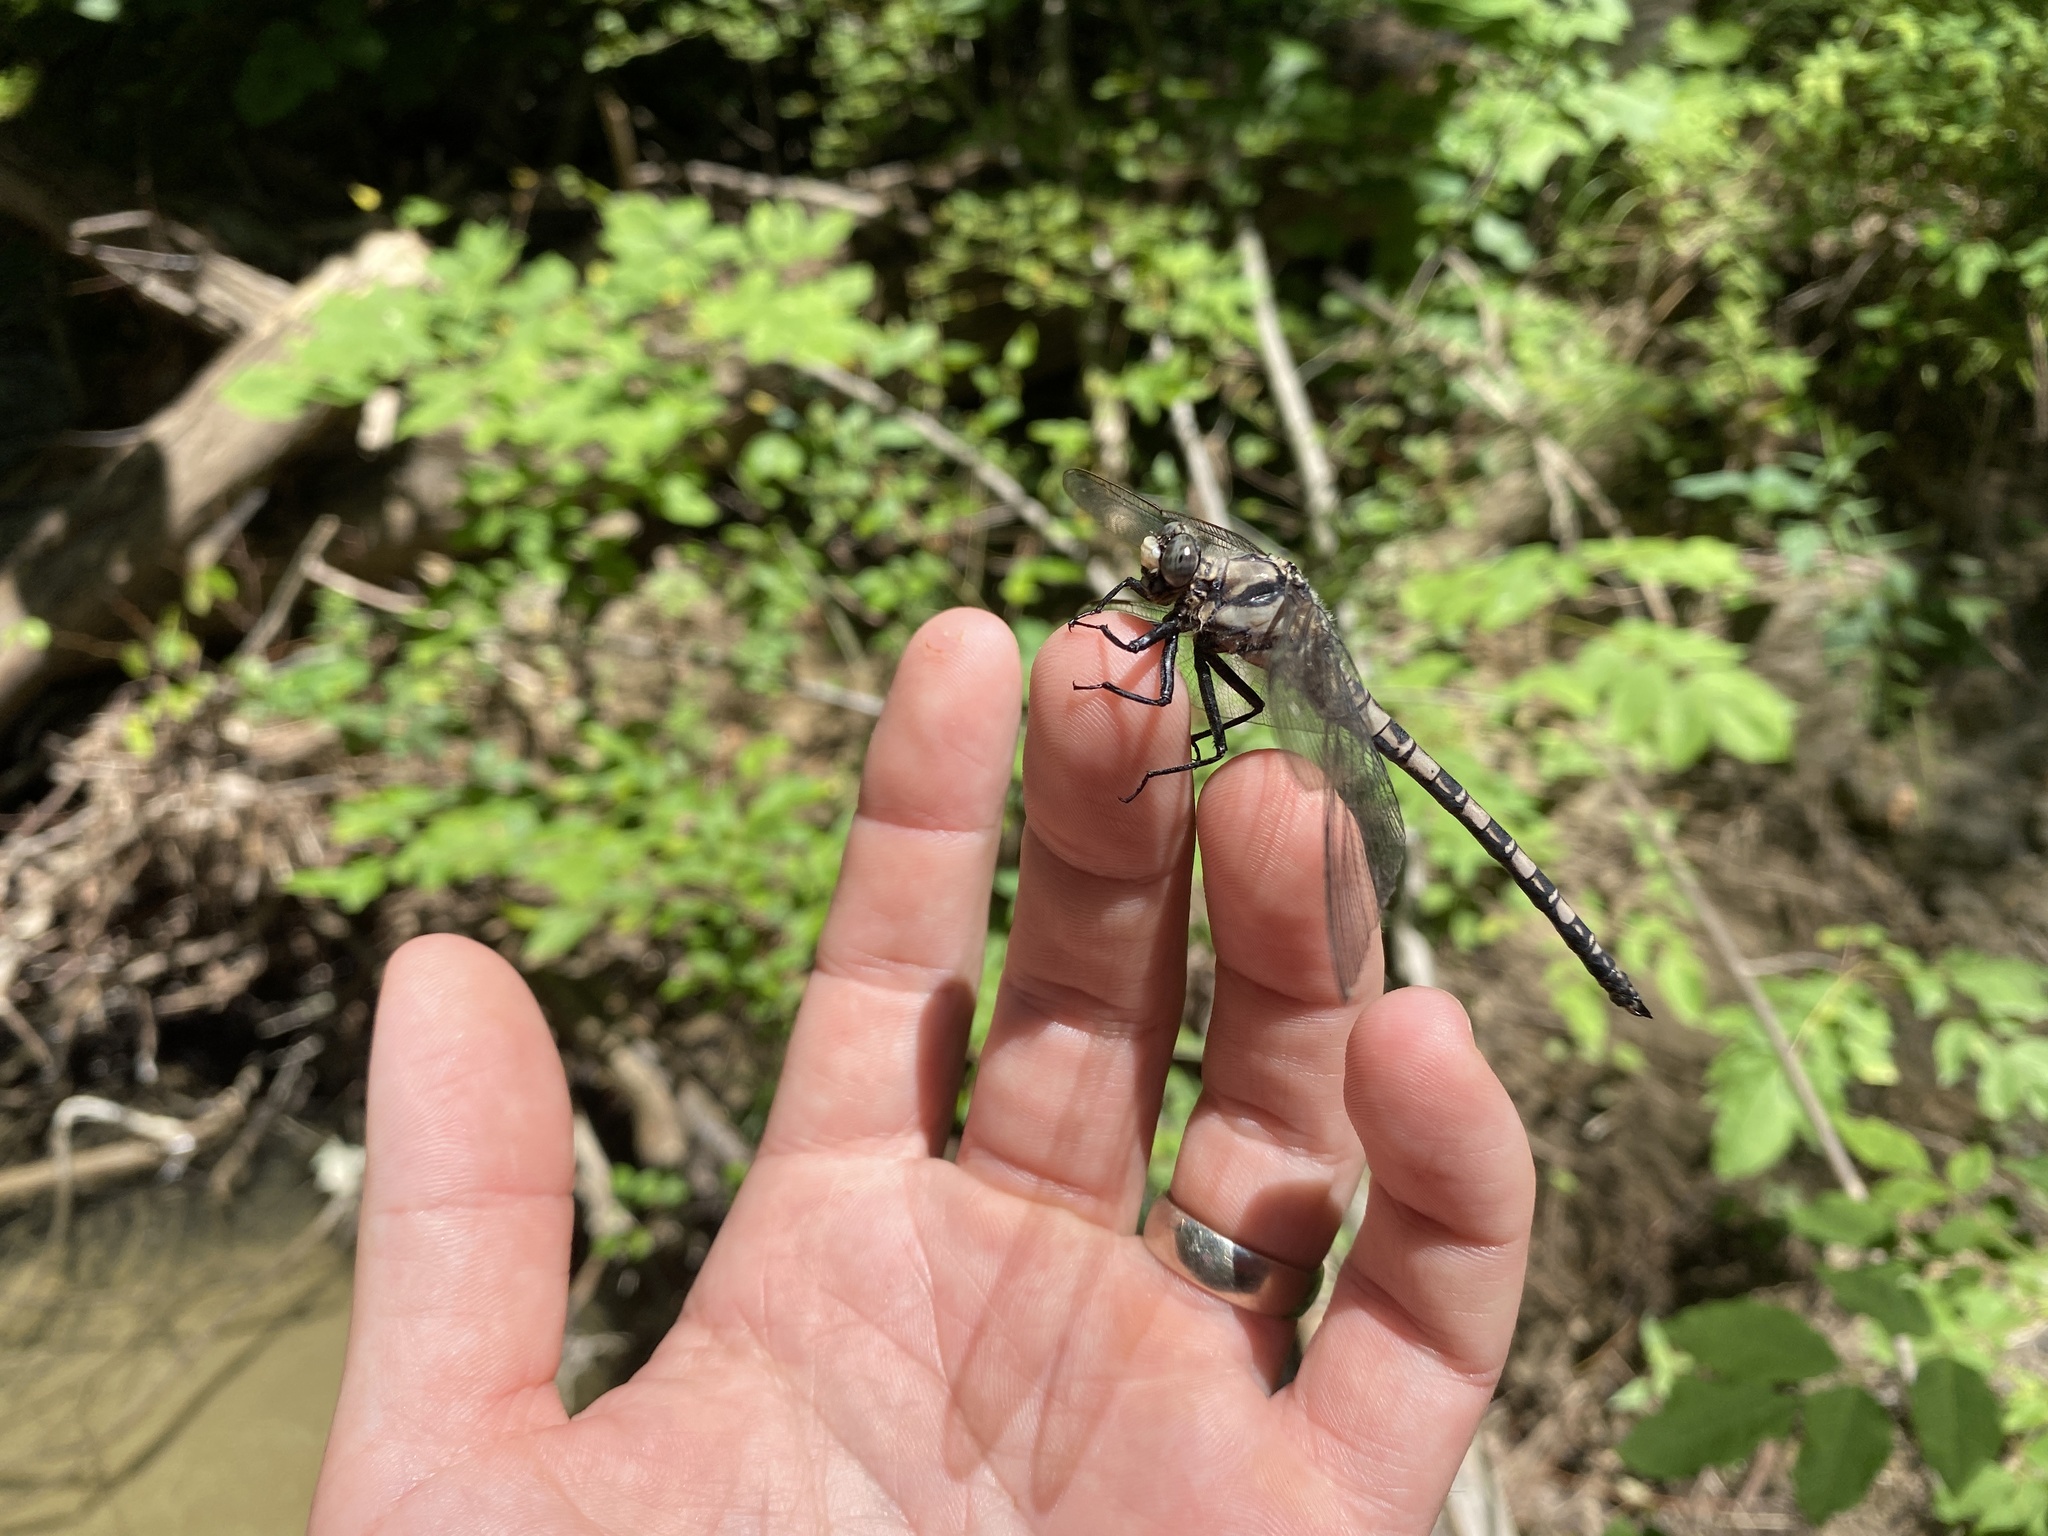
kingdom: Animalia
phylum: Arthropoda
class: Insecta
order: Odonata
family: Petaluridae
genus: Tachopteryx
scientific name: Tachopteryx thoreyi
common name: Gray petaltail
